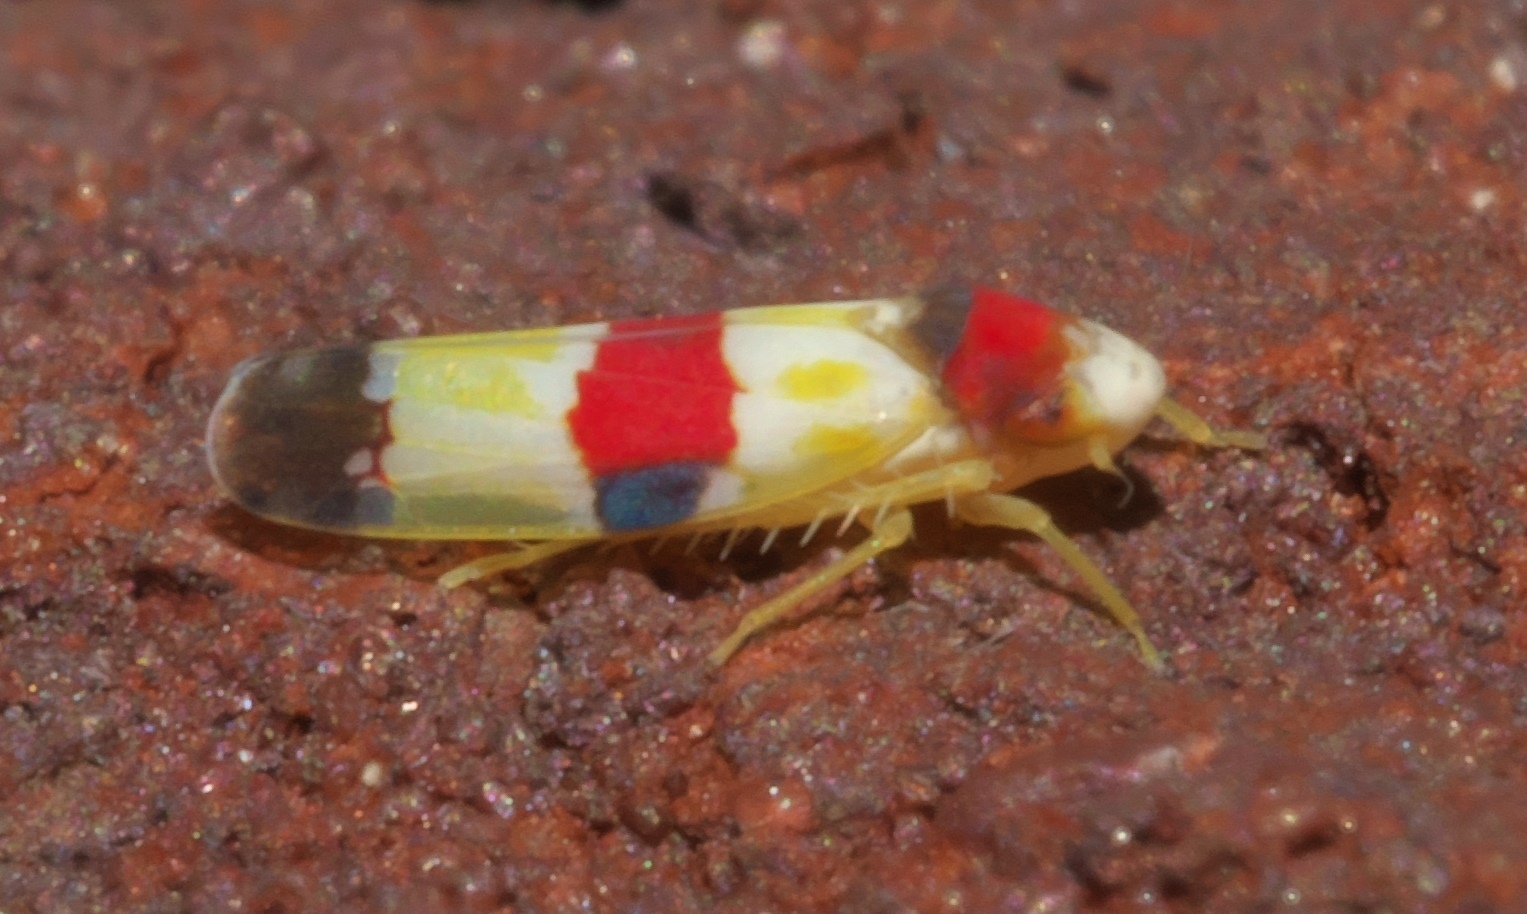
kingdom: Animalia
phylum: Arthropoda
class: Insecta
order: Hemiptera
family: Cicadellidae
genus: Erythroneura
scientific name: Erythroneura diva
